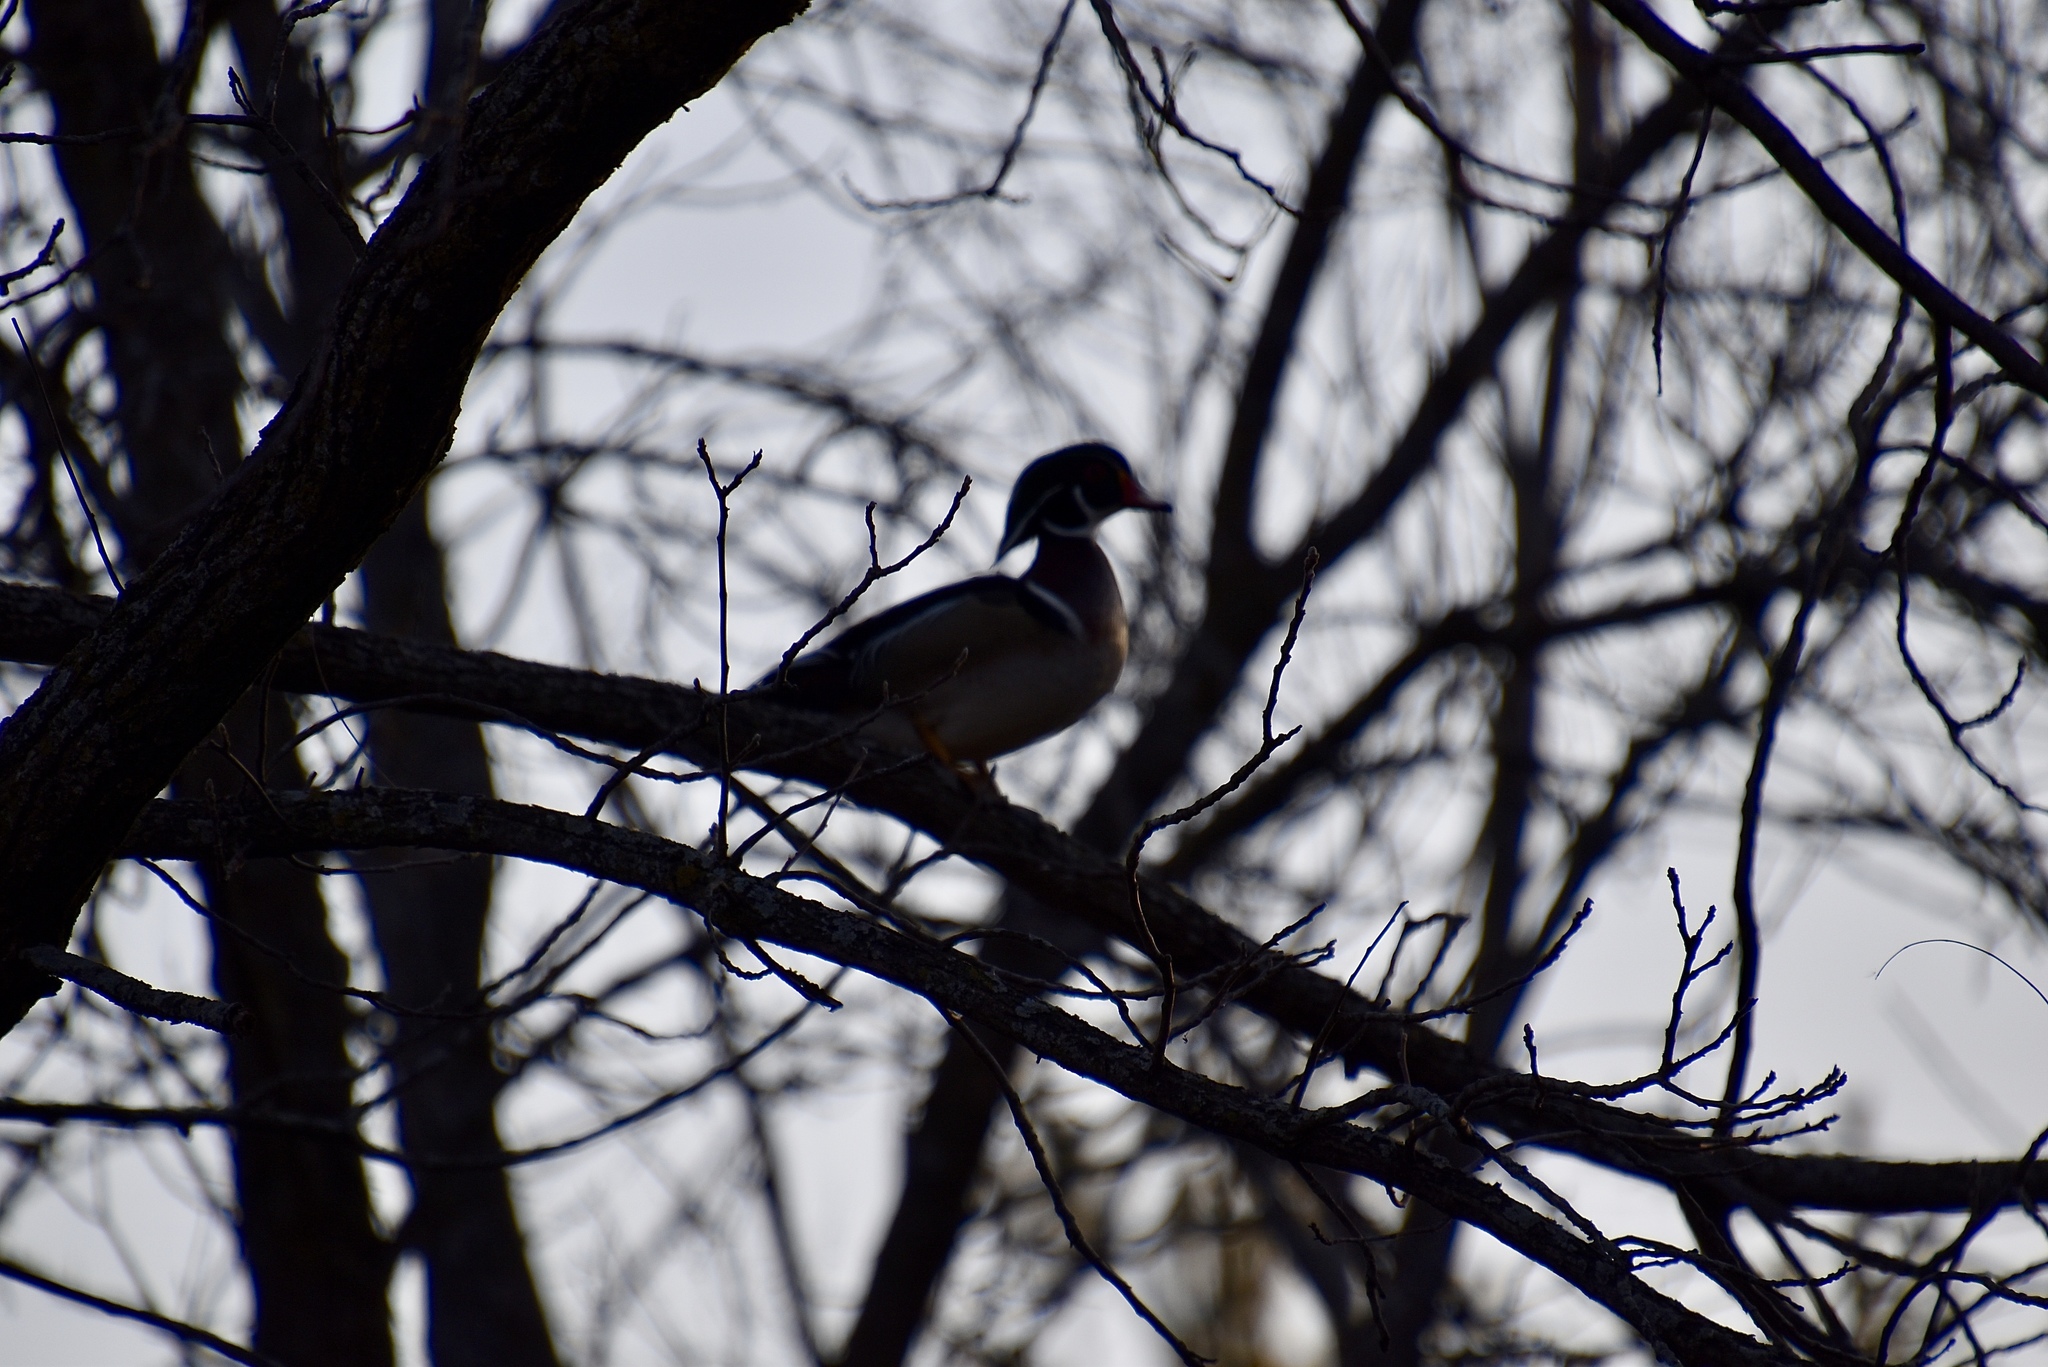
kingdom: Animalia
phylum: Chordata
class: Aves
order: Anseriformes
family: Anatidae
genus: Aix
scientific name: Aix sponsa
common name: Wood duck
